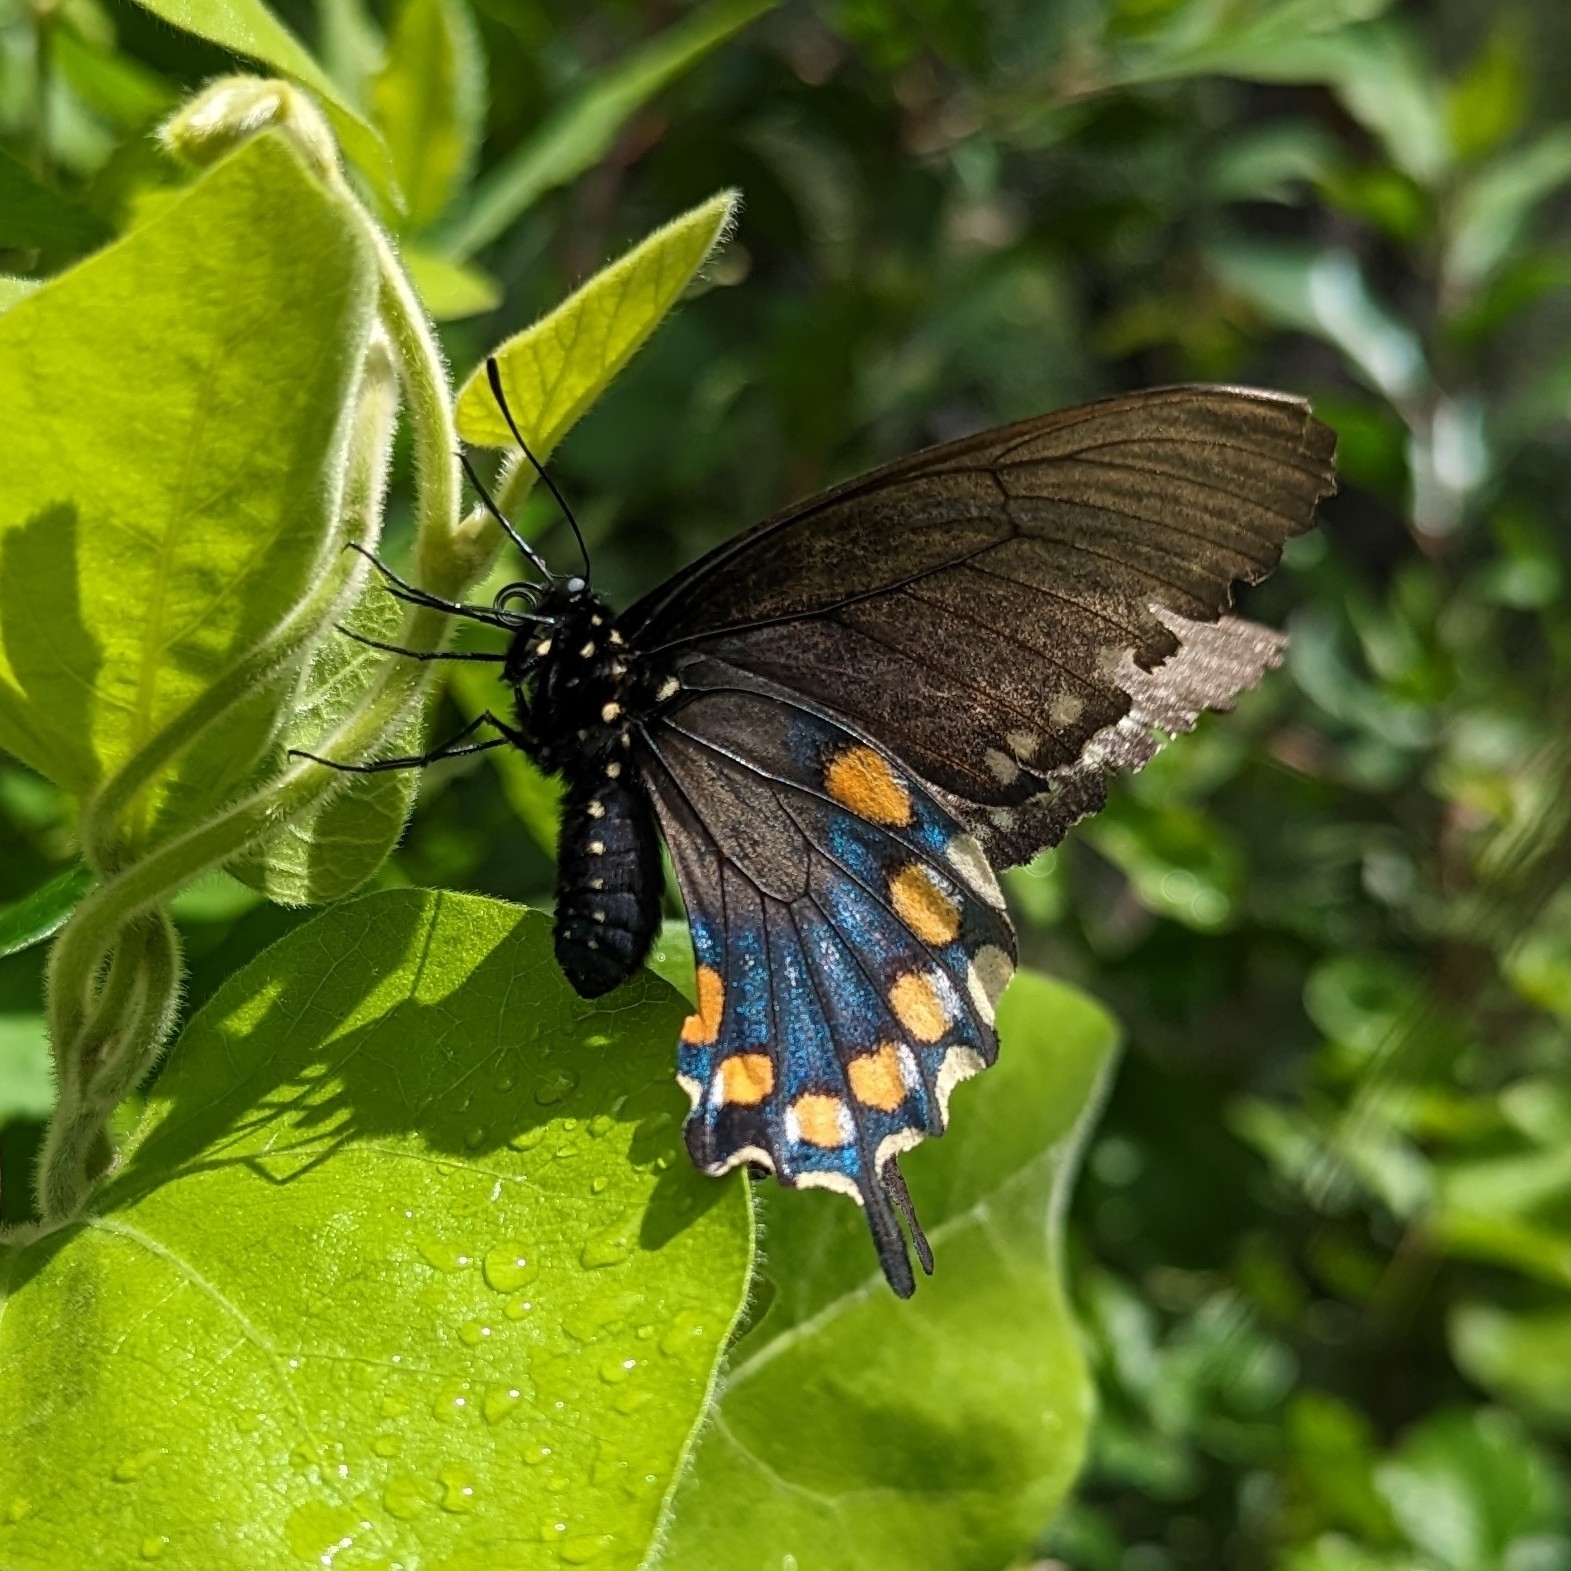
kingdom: Animalia
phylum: Arthropoda
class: Insecta
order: Lepidoptera
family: Papilionidae
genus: Battus
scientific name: Battus philenor
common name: Pipevine swallowtail
